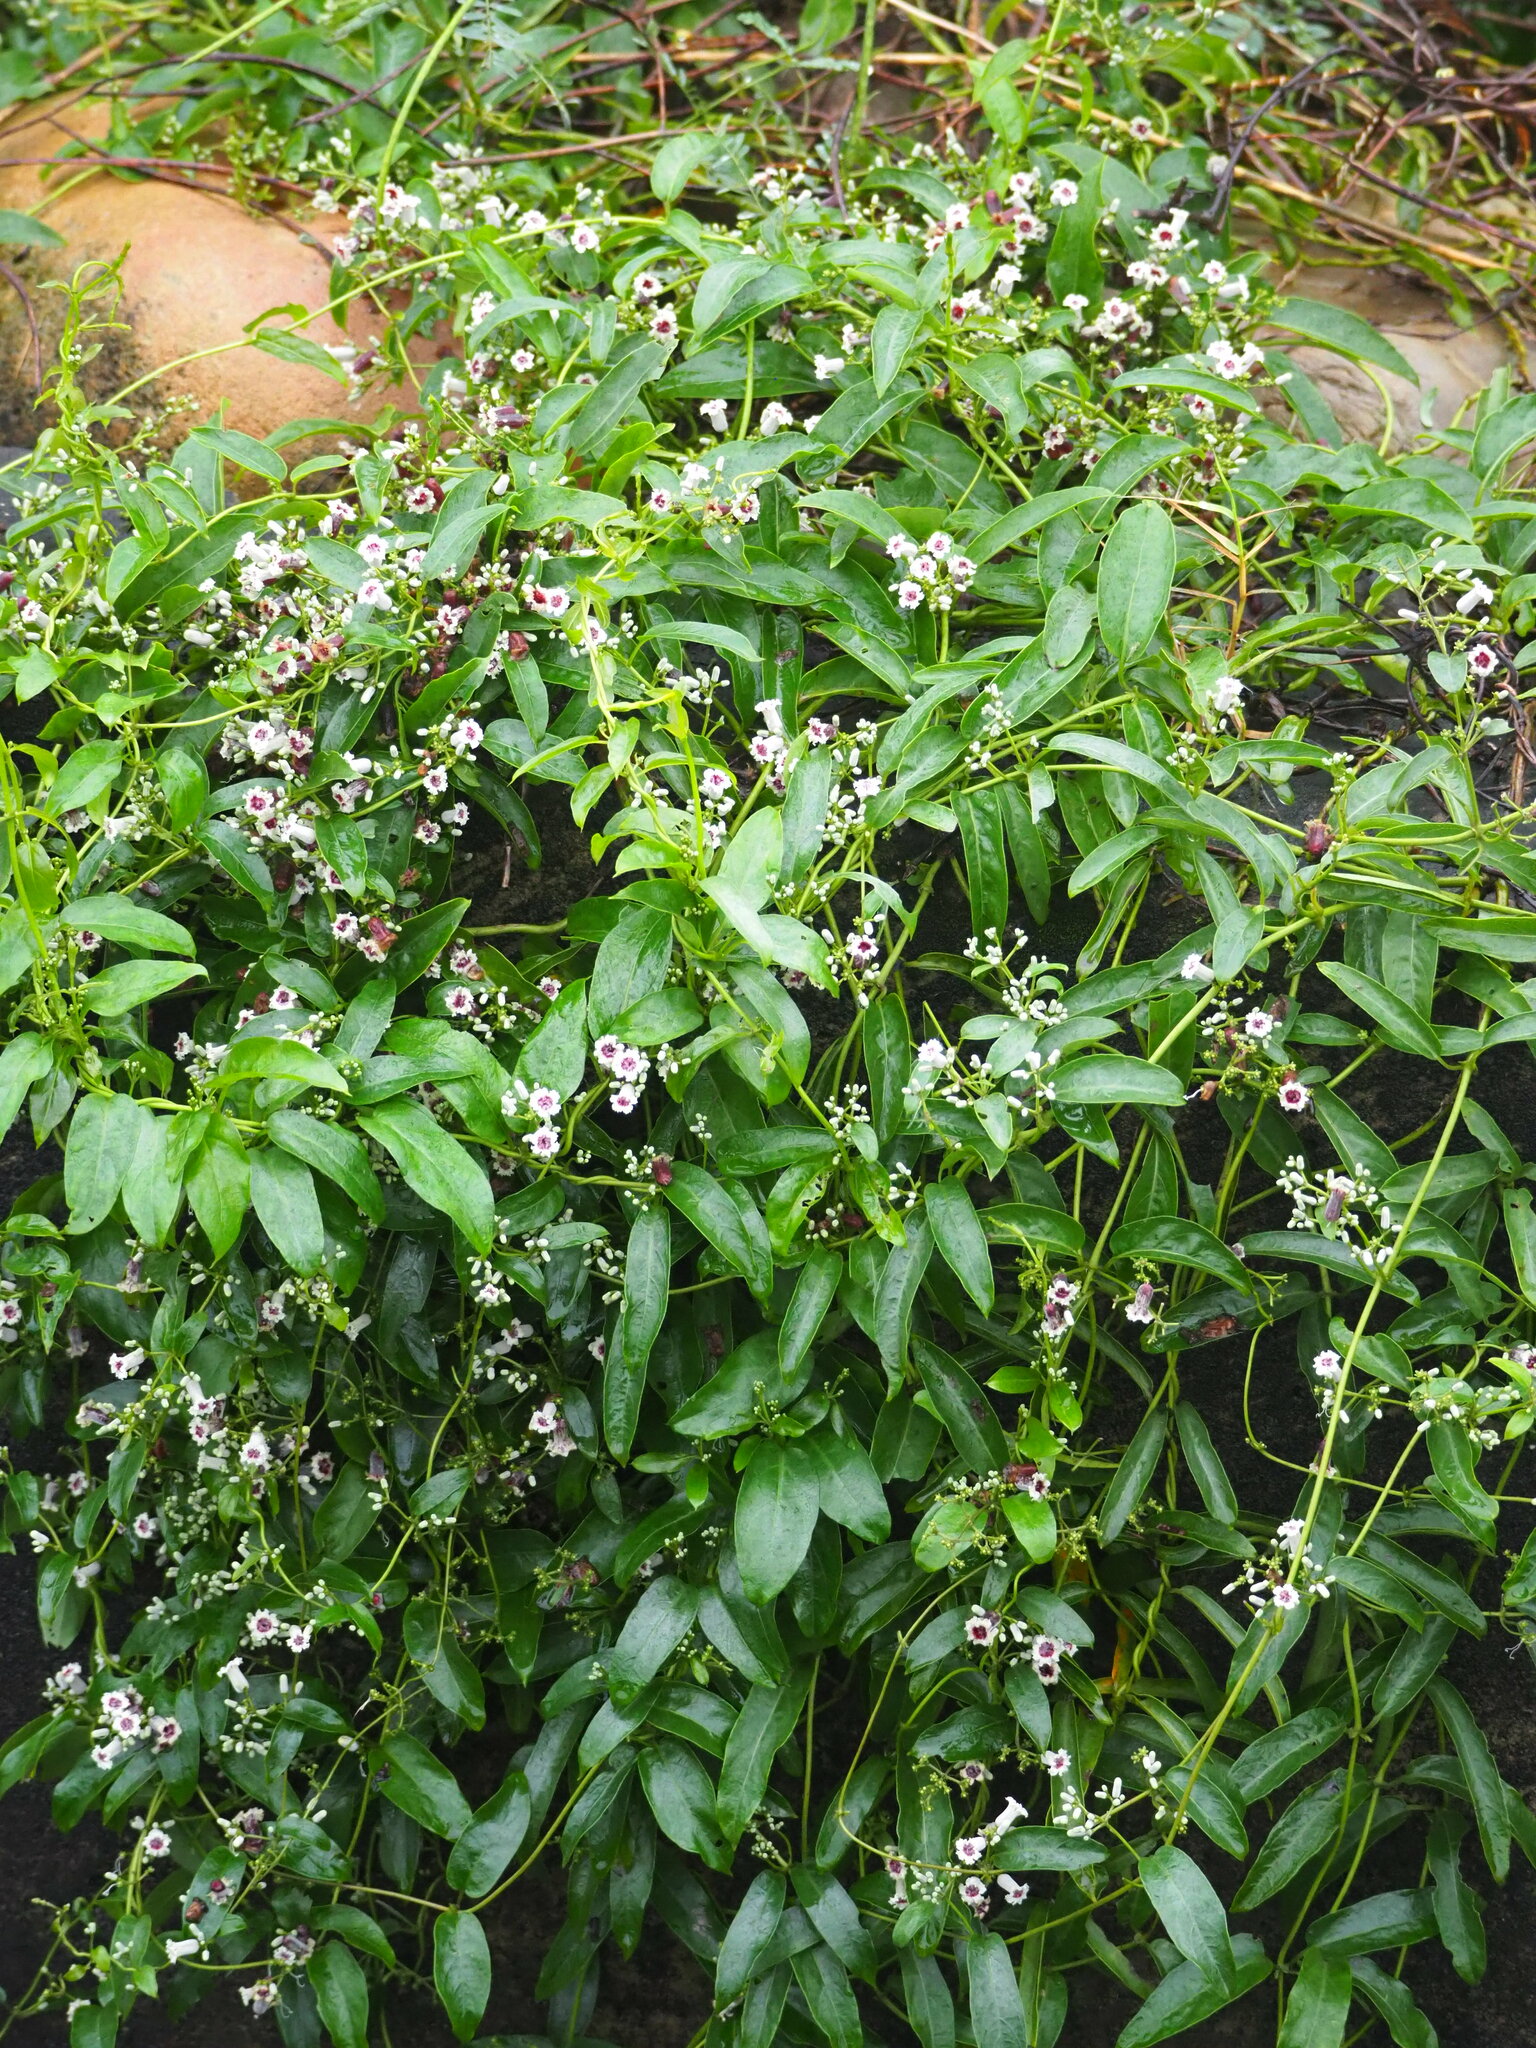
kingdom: Plantae
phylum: Tracheophyta
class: Magnoliopsida
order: Gentianales
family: Rubiaceae
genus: Paederia
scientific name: Paederia foetida
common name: Stinkvine
